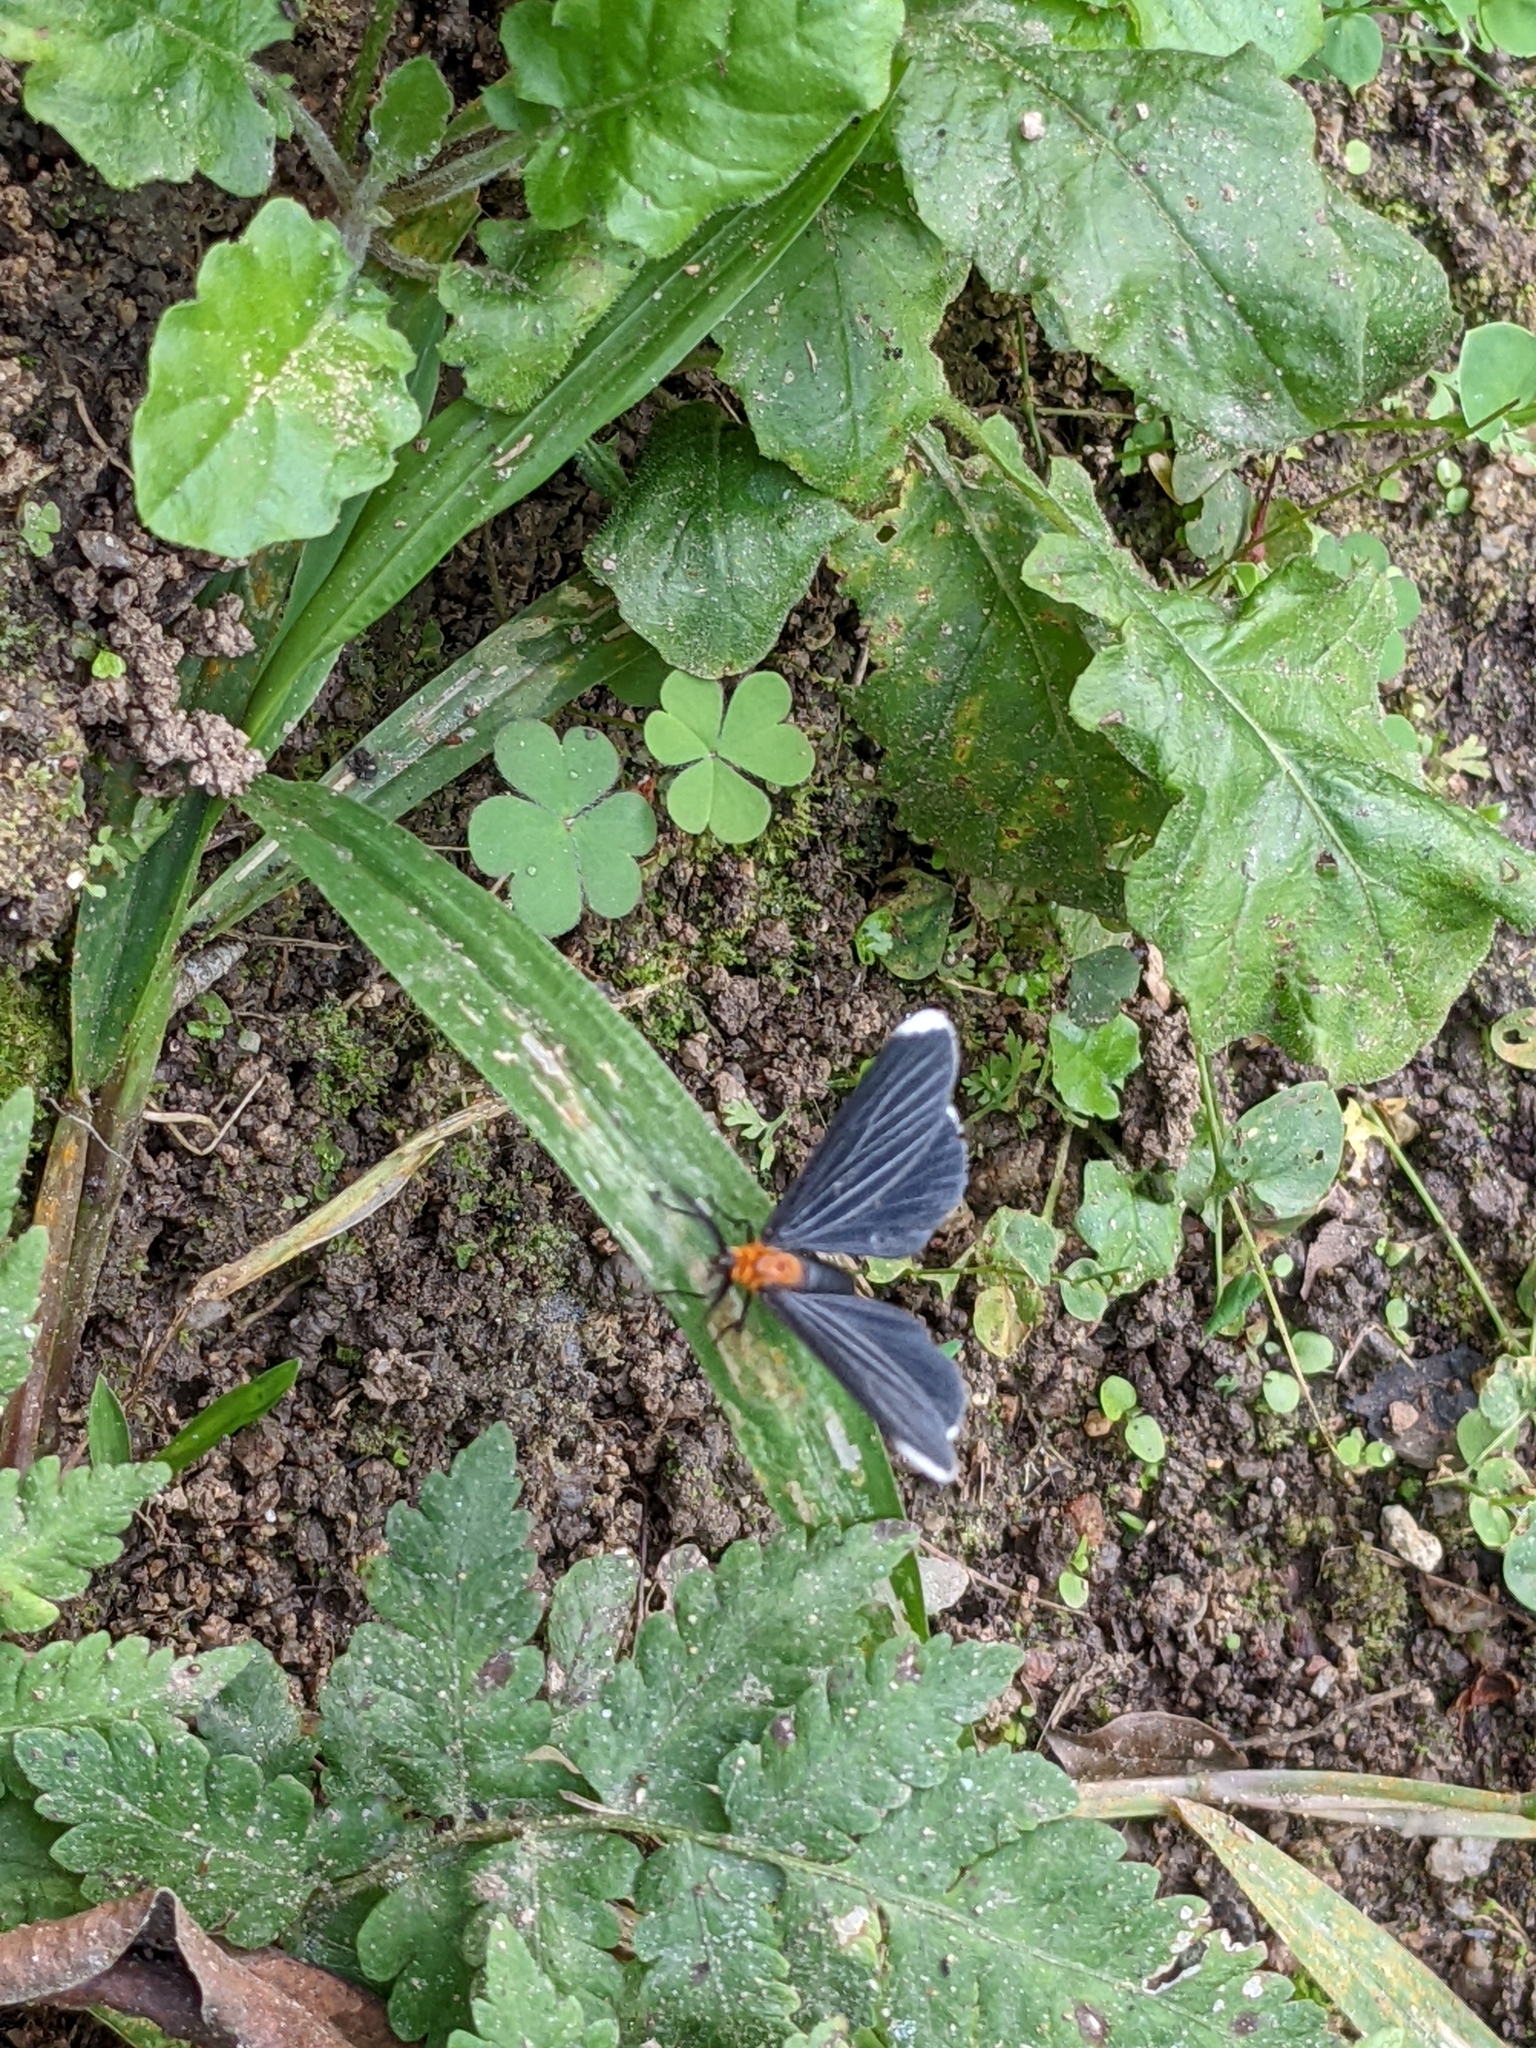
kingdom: Animalia
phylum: Arthropoda
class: Insecta
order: Lepidoptera
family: Geometridae
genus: Melanchroia
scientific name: Melanchroia chephise
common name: White-tipped black
